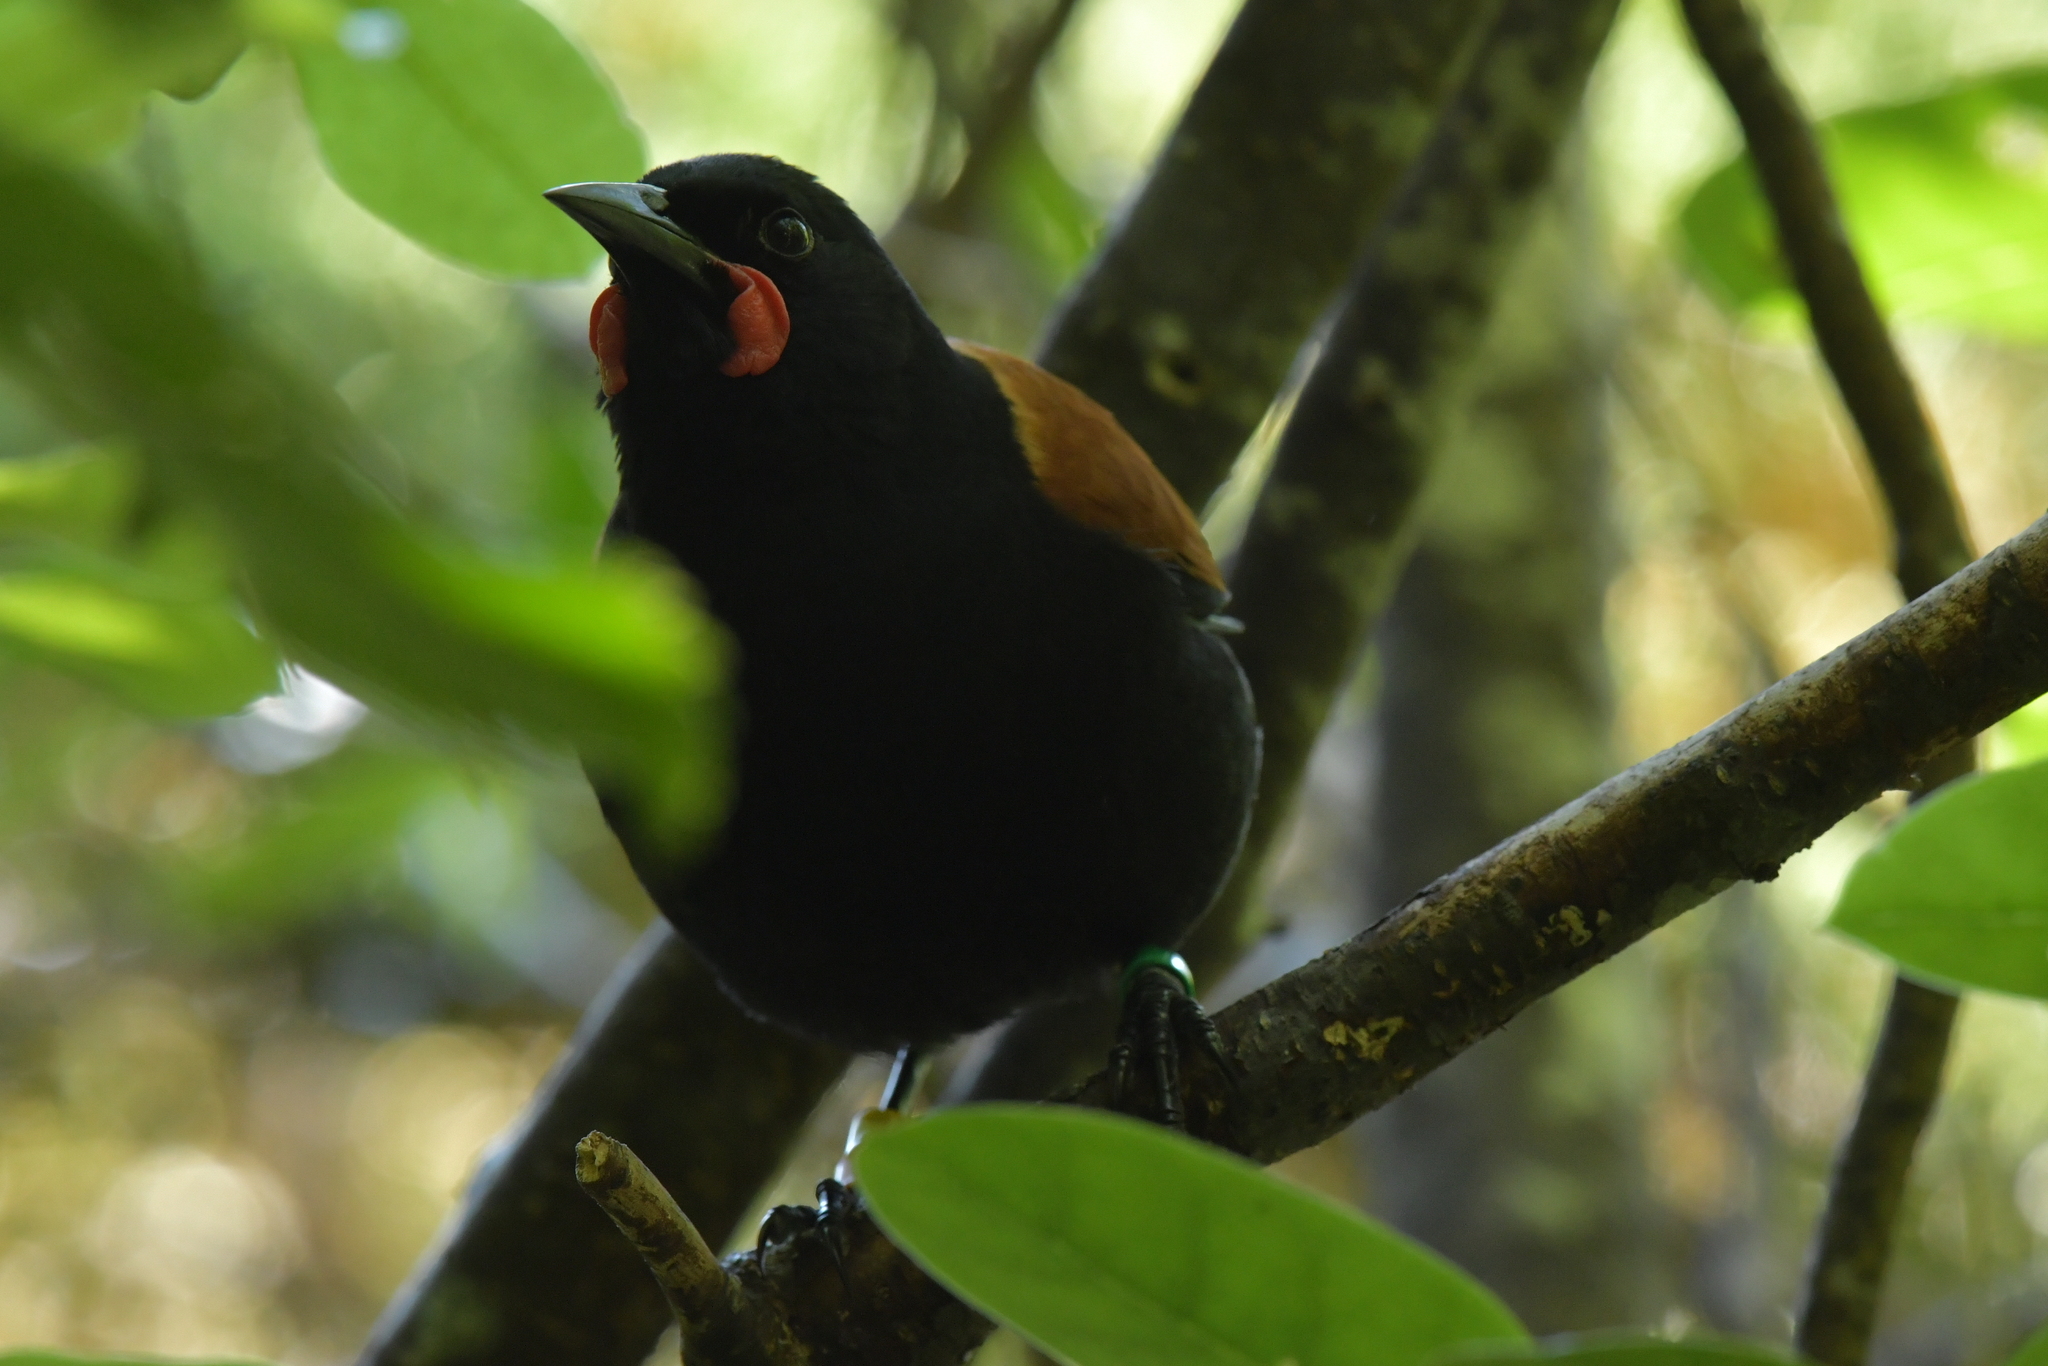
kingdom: Animalia
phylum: Chordata
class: Aves
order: Passeriformes
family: Callaeatidae
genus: Philesturnus
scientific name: Philesturnus carunculatus
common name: South island saddleback
